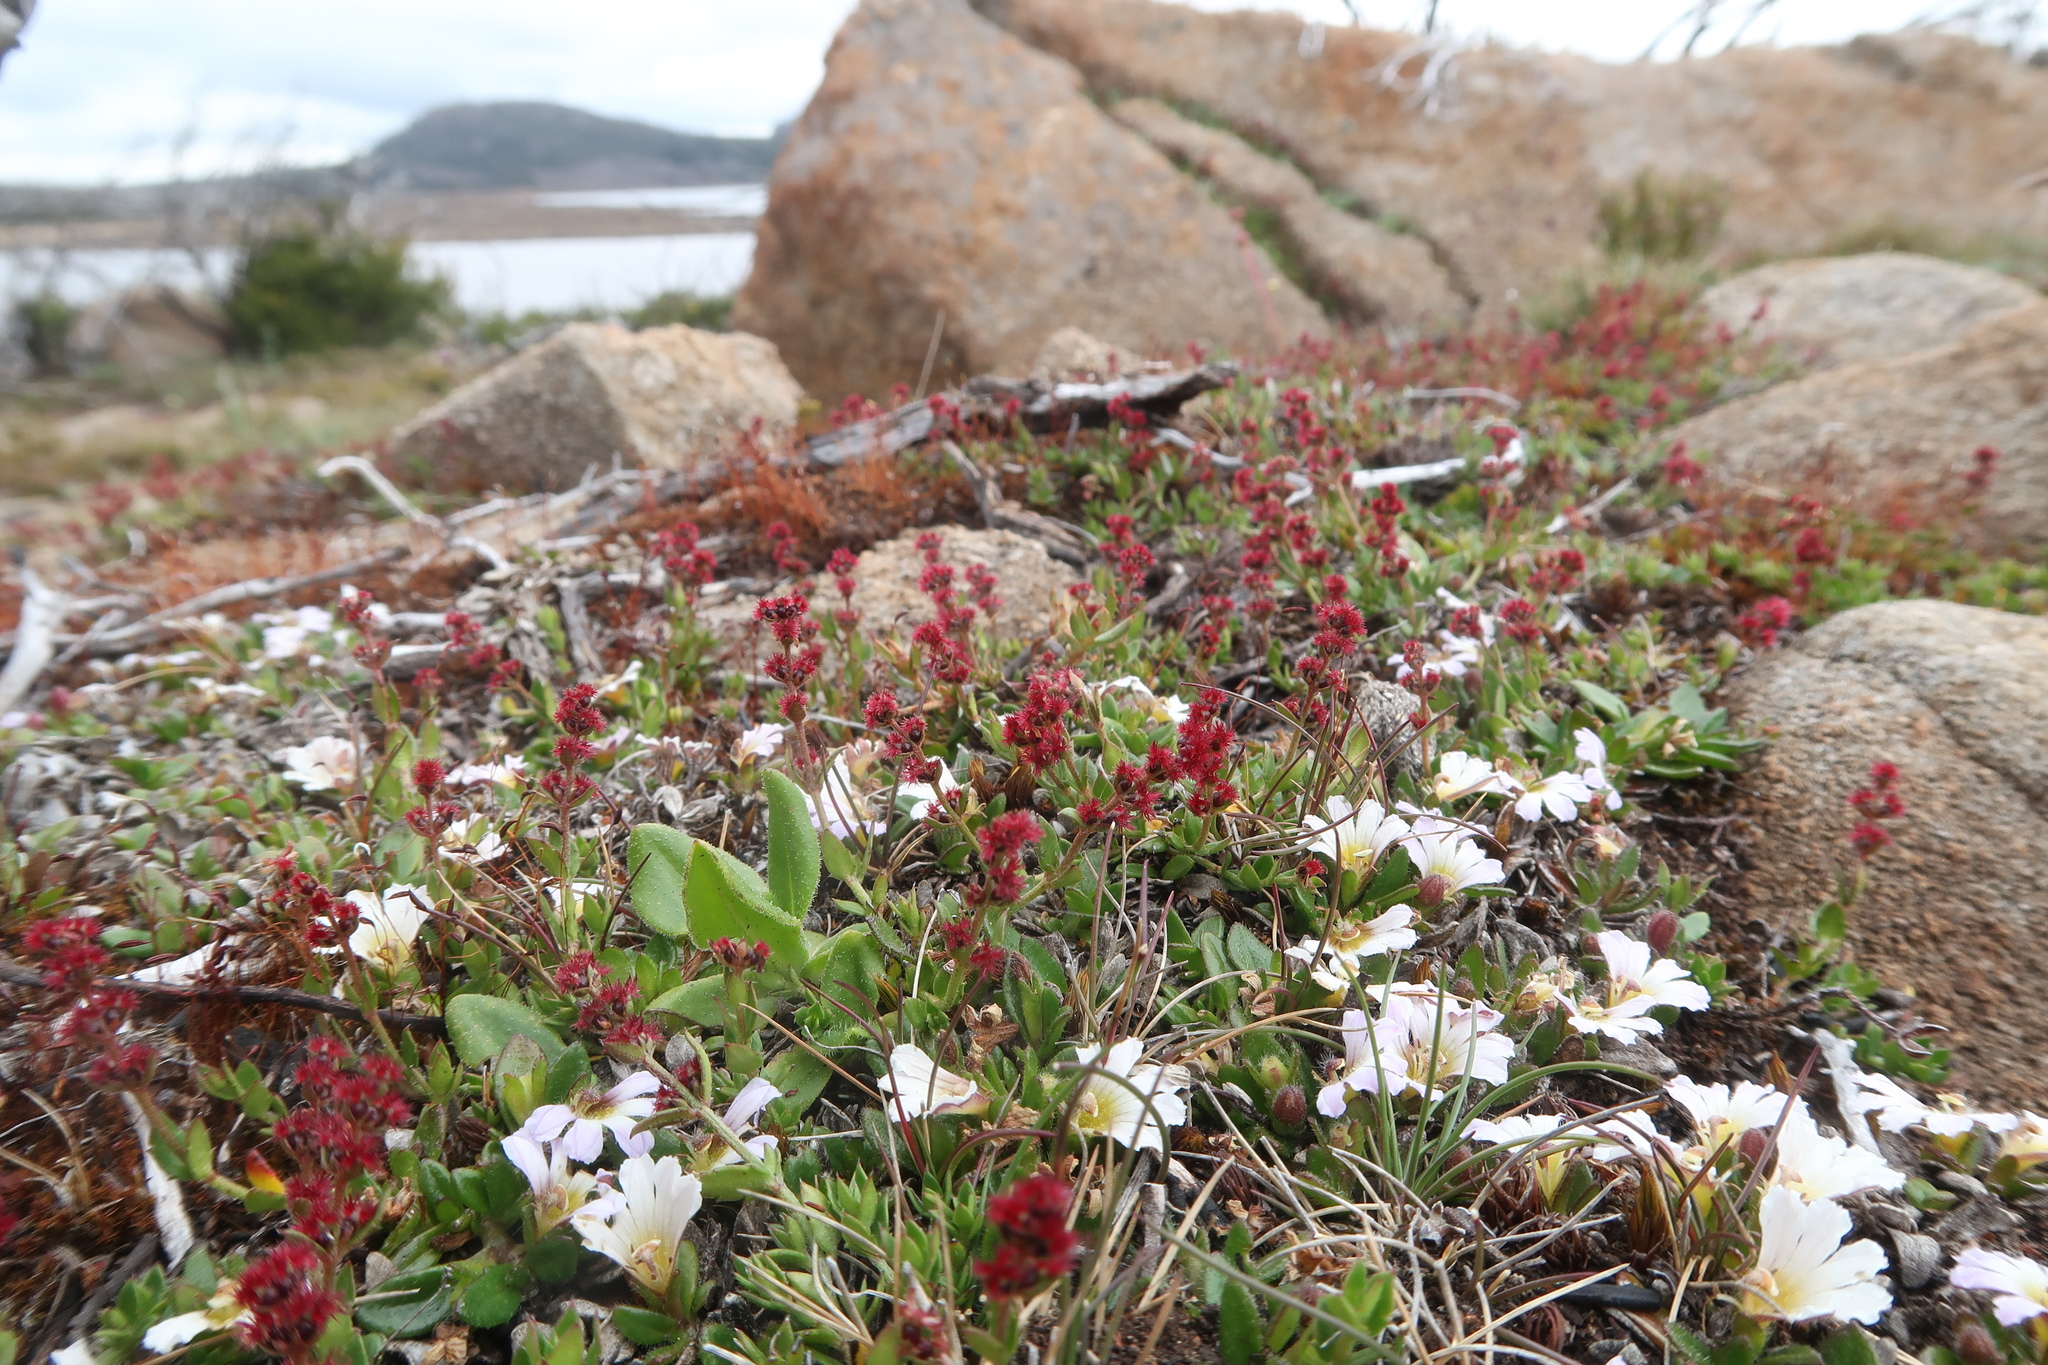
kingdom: Plantae
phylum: Tracheophyta
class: Magnoliopsida
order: Saxifragales
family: Haloragaceae
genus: Gonocarpus
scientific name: Gonocarpus serpyllifolius
